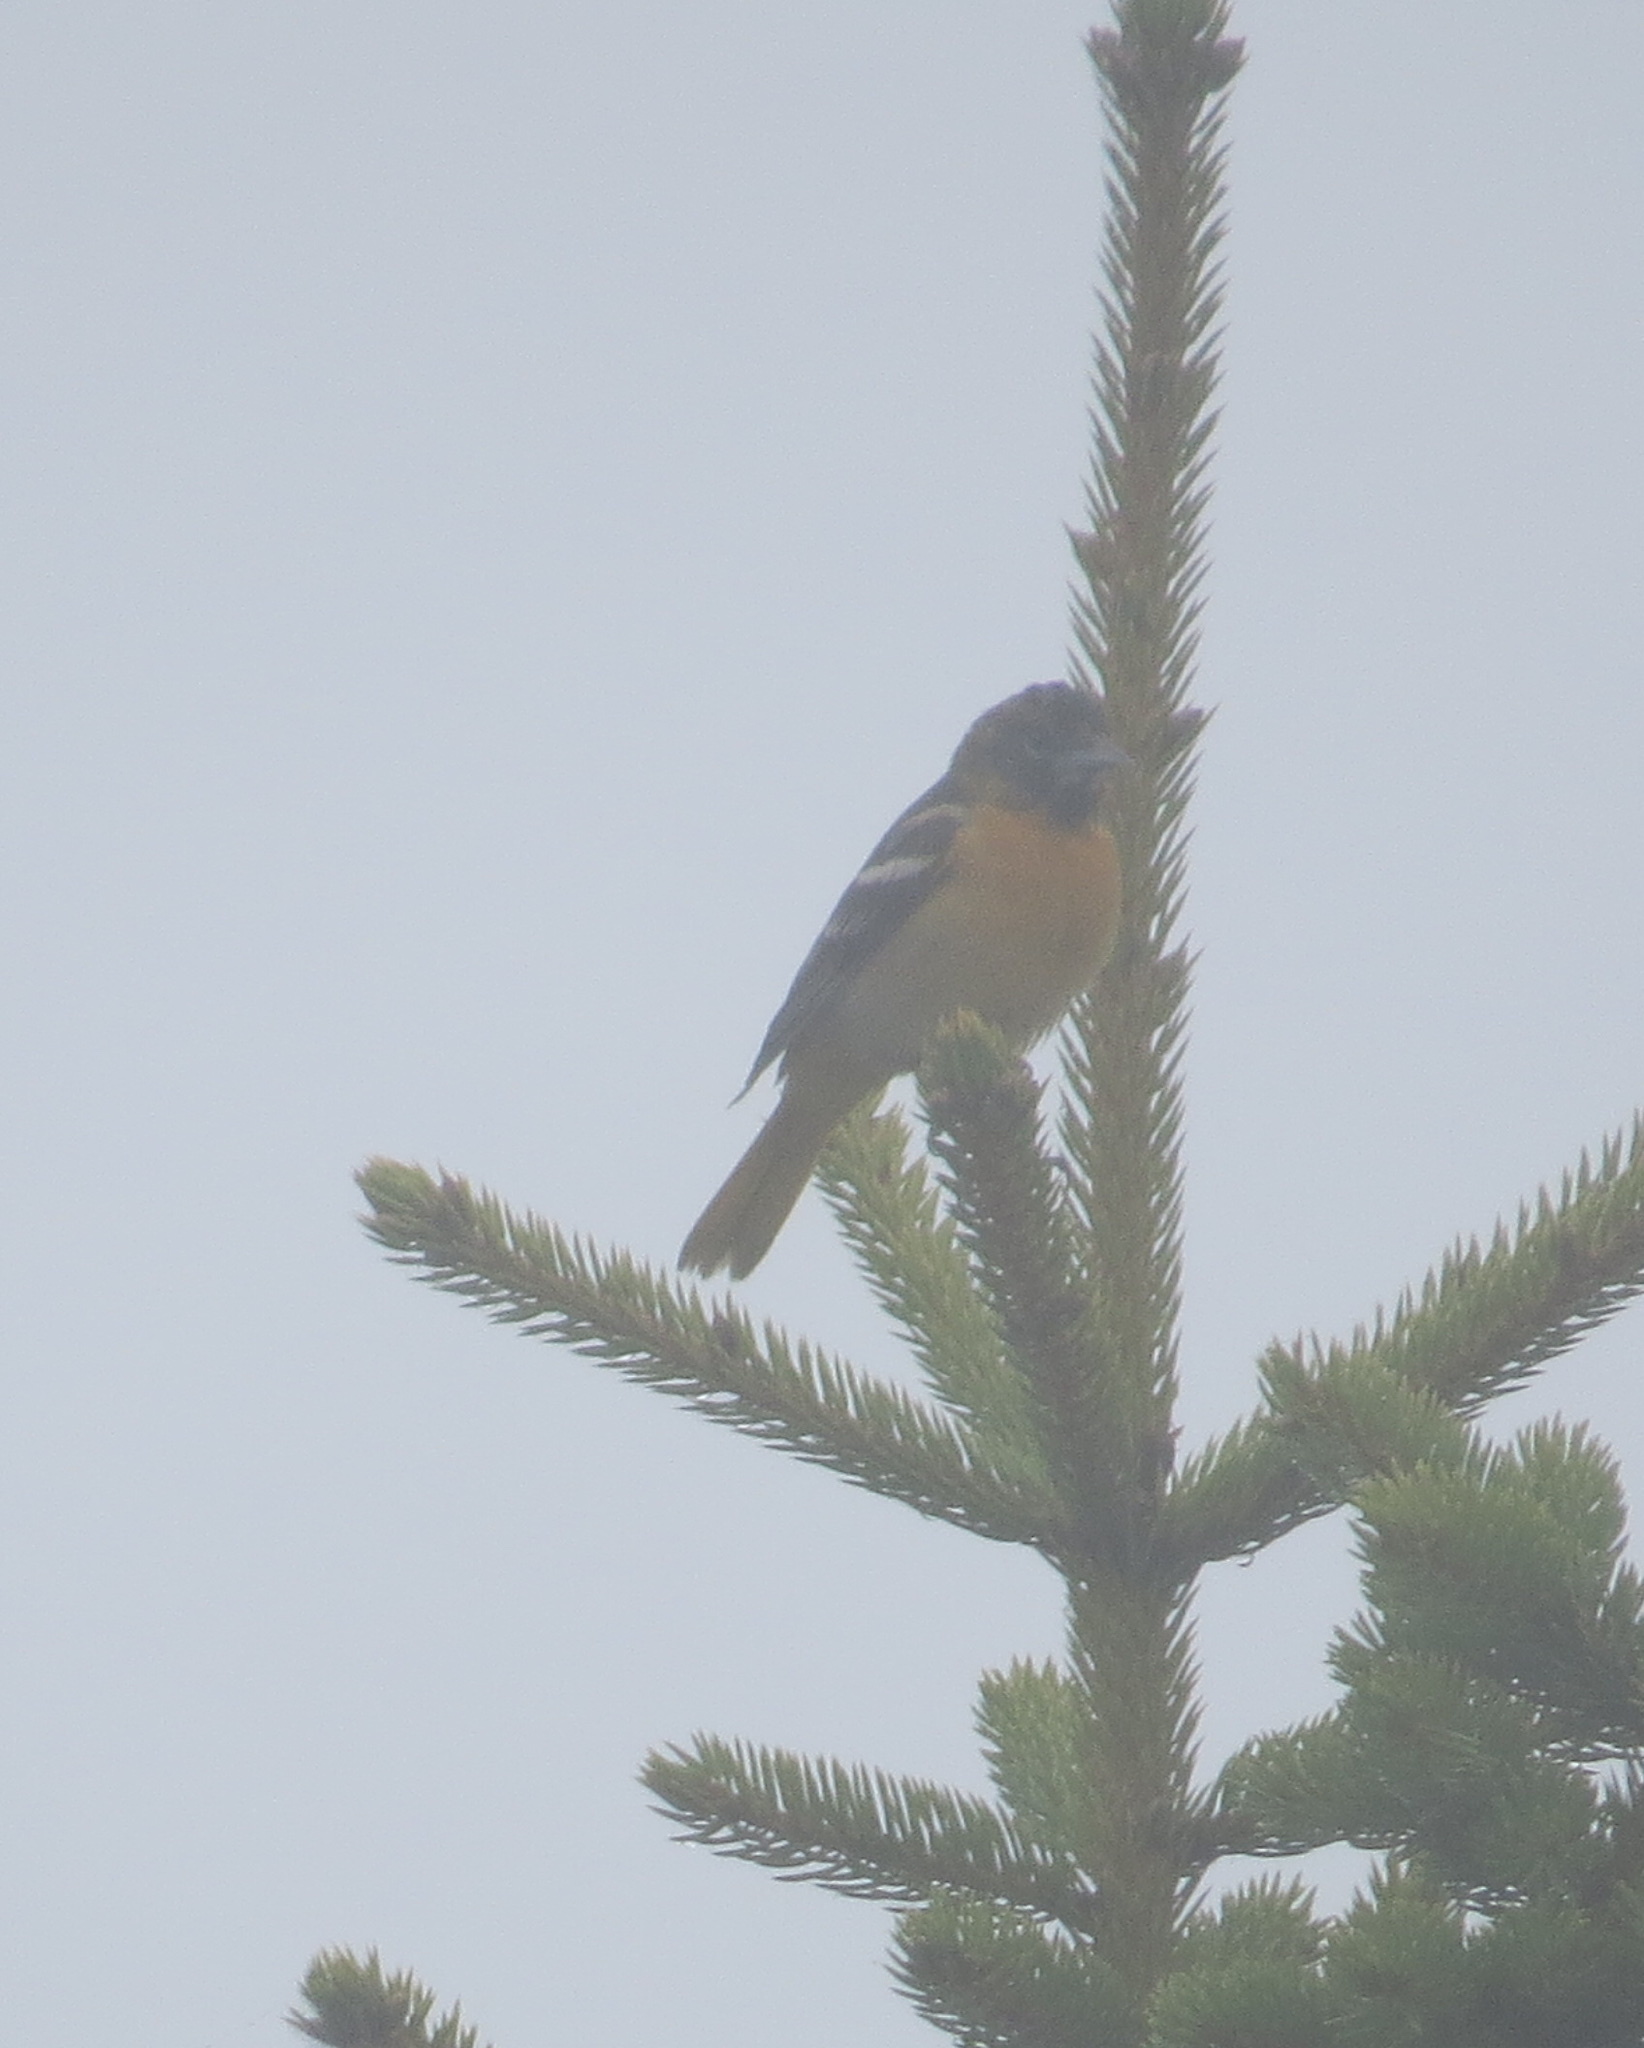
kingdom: Animalia
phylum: Chordata
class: Aves
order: Passeriformes
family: Icteridae
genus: Icterus
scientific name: Icterus galbula
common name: Baltimore oriole
